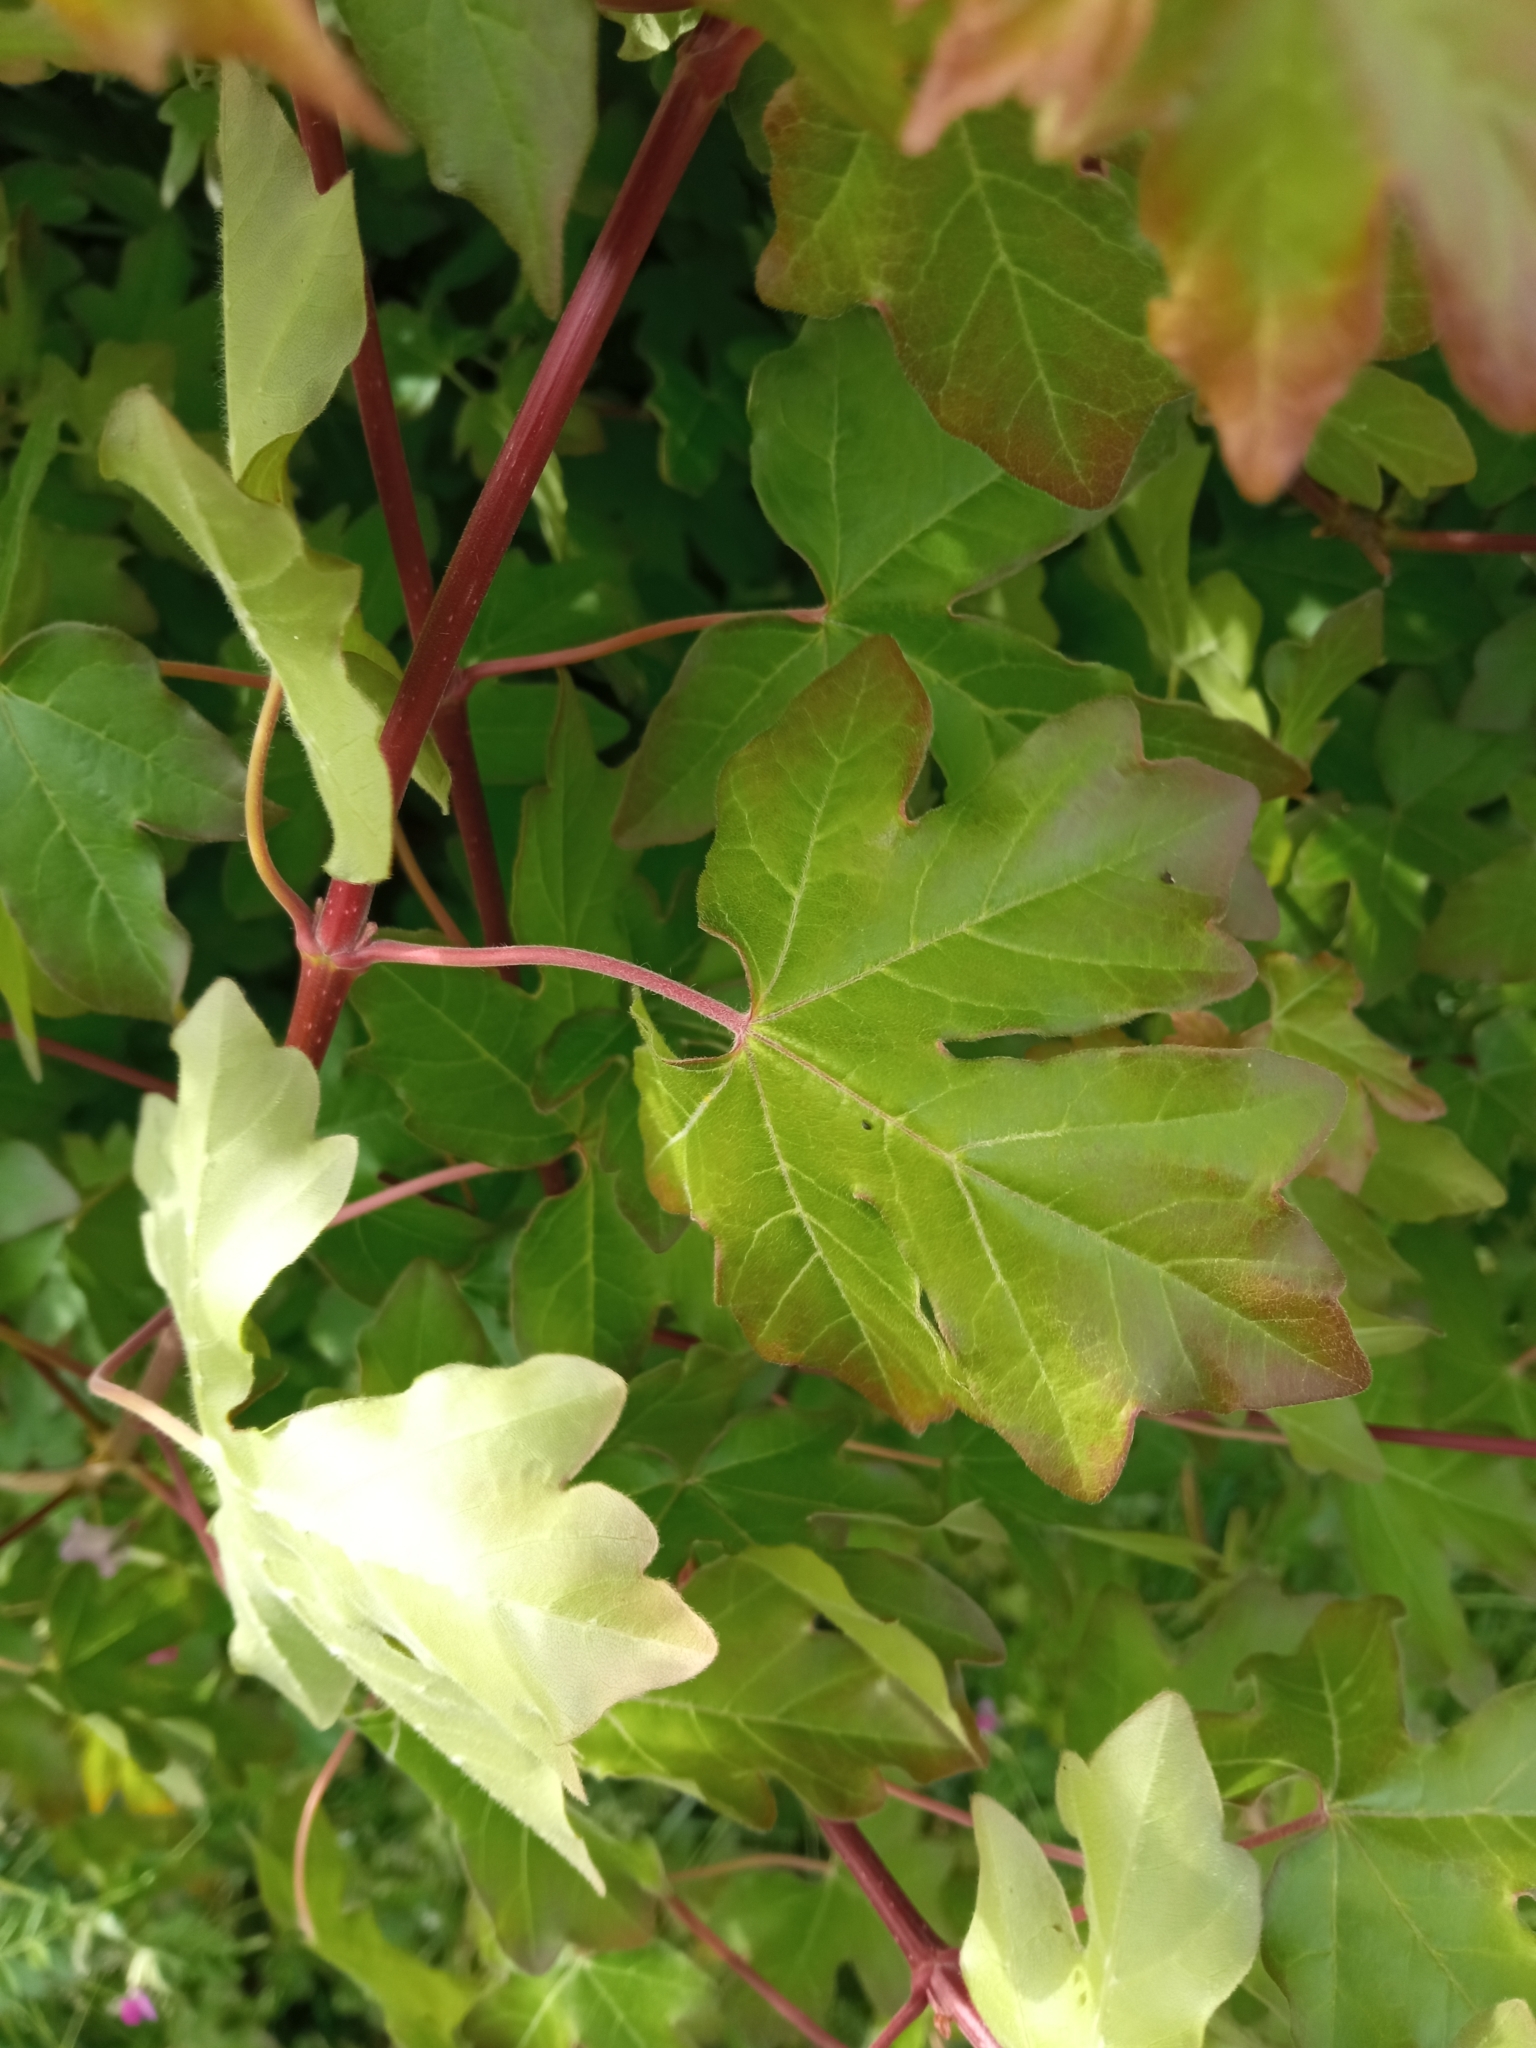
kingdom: Plantae
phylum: Tracheophyta
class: Magnoliopsida
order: Sapindales
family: Sapindaceae
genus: Acer
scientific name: Acer campestre
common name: Field maple
